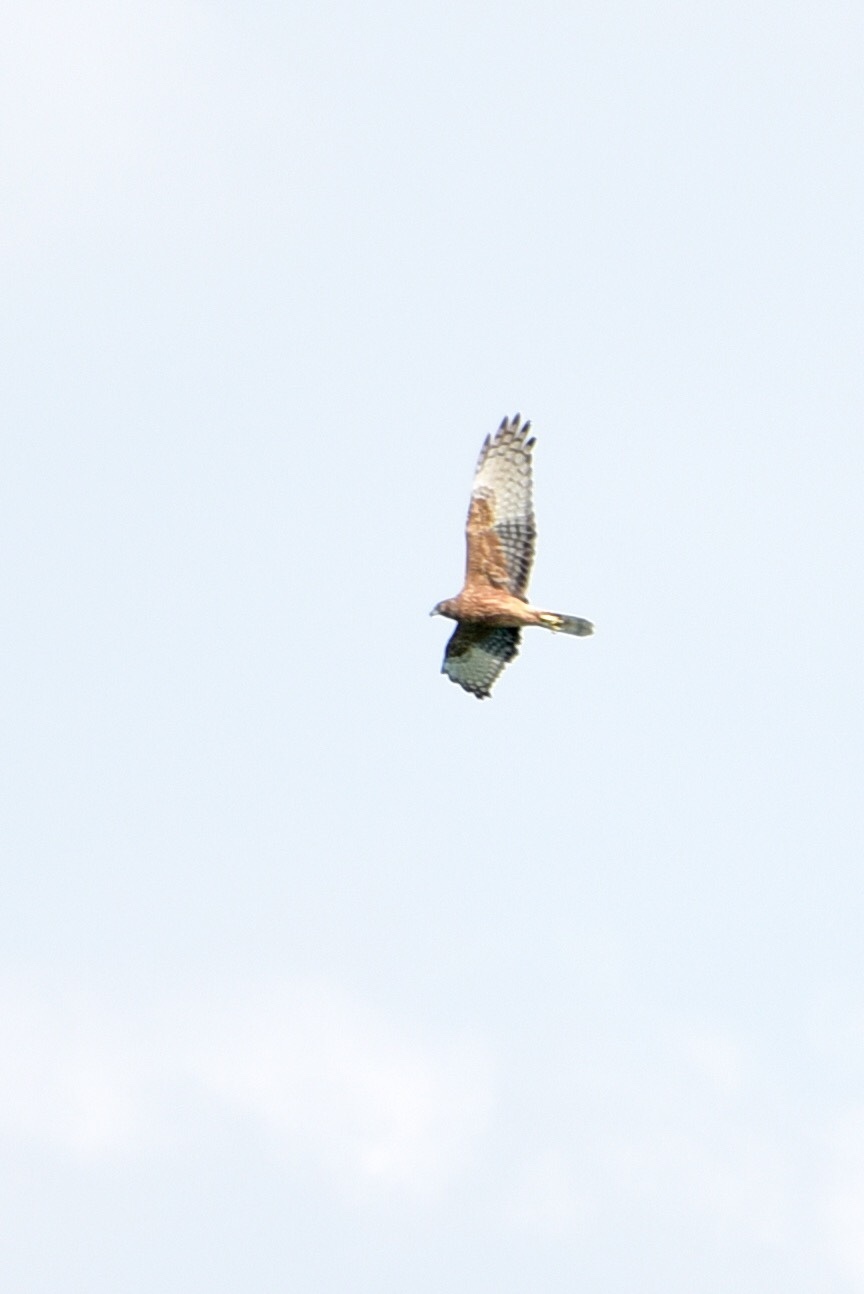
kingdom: Animalia
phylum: Chordata
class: Aves
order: Accipitriformes
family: Accipitridae
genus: Circus
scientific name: Circus approximans
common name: Swamp harrier
